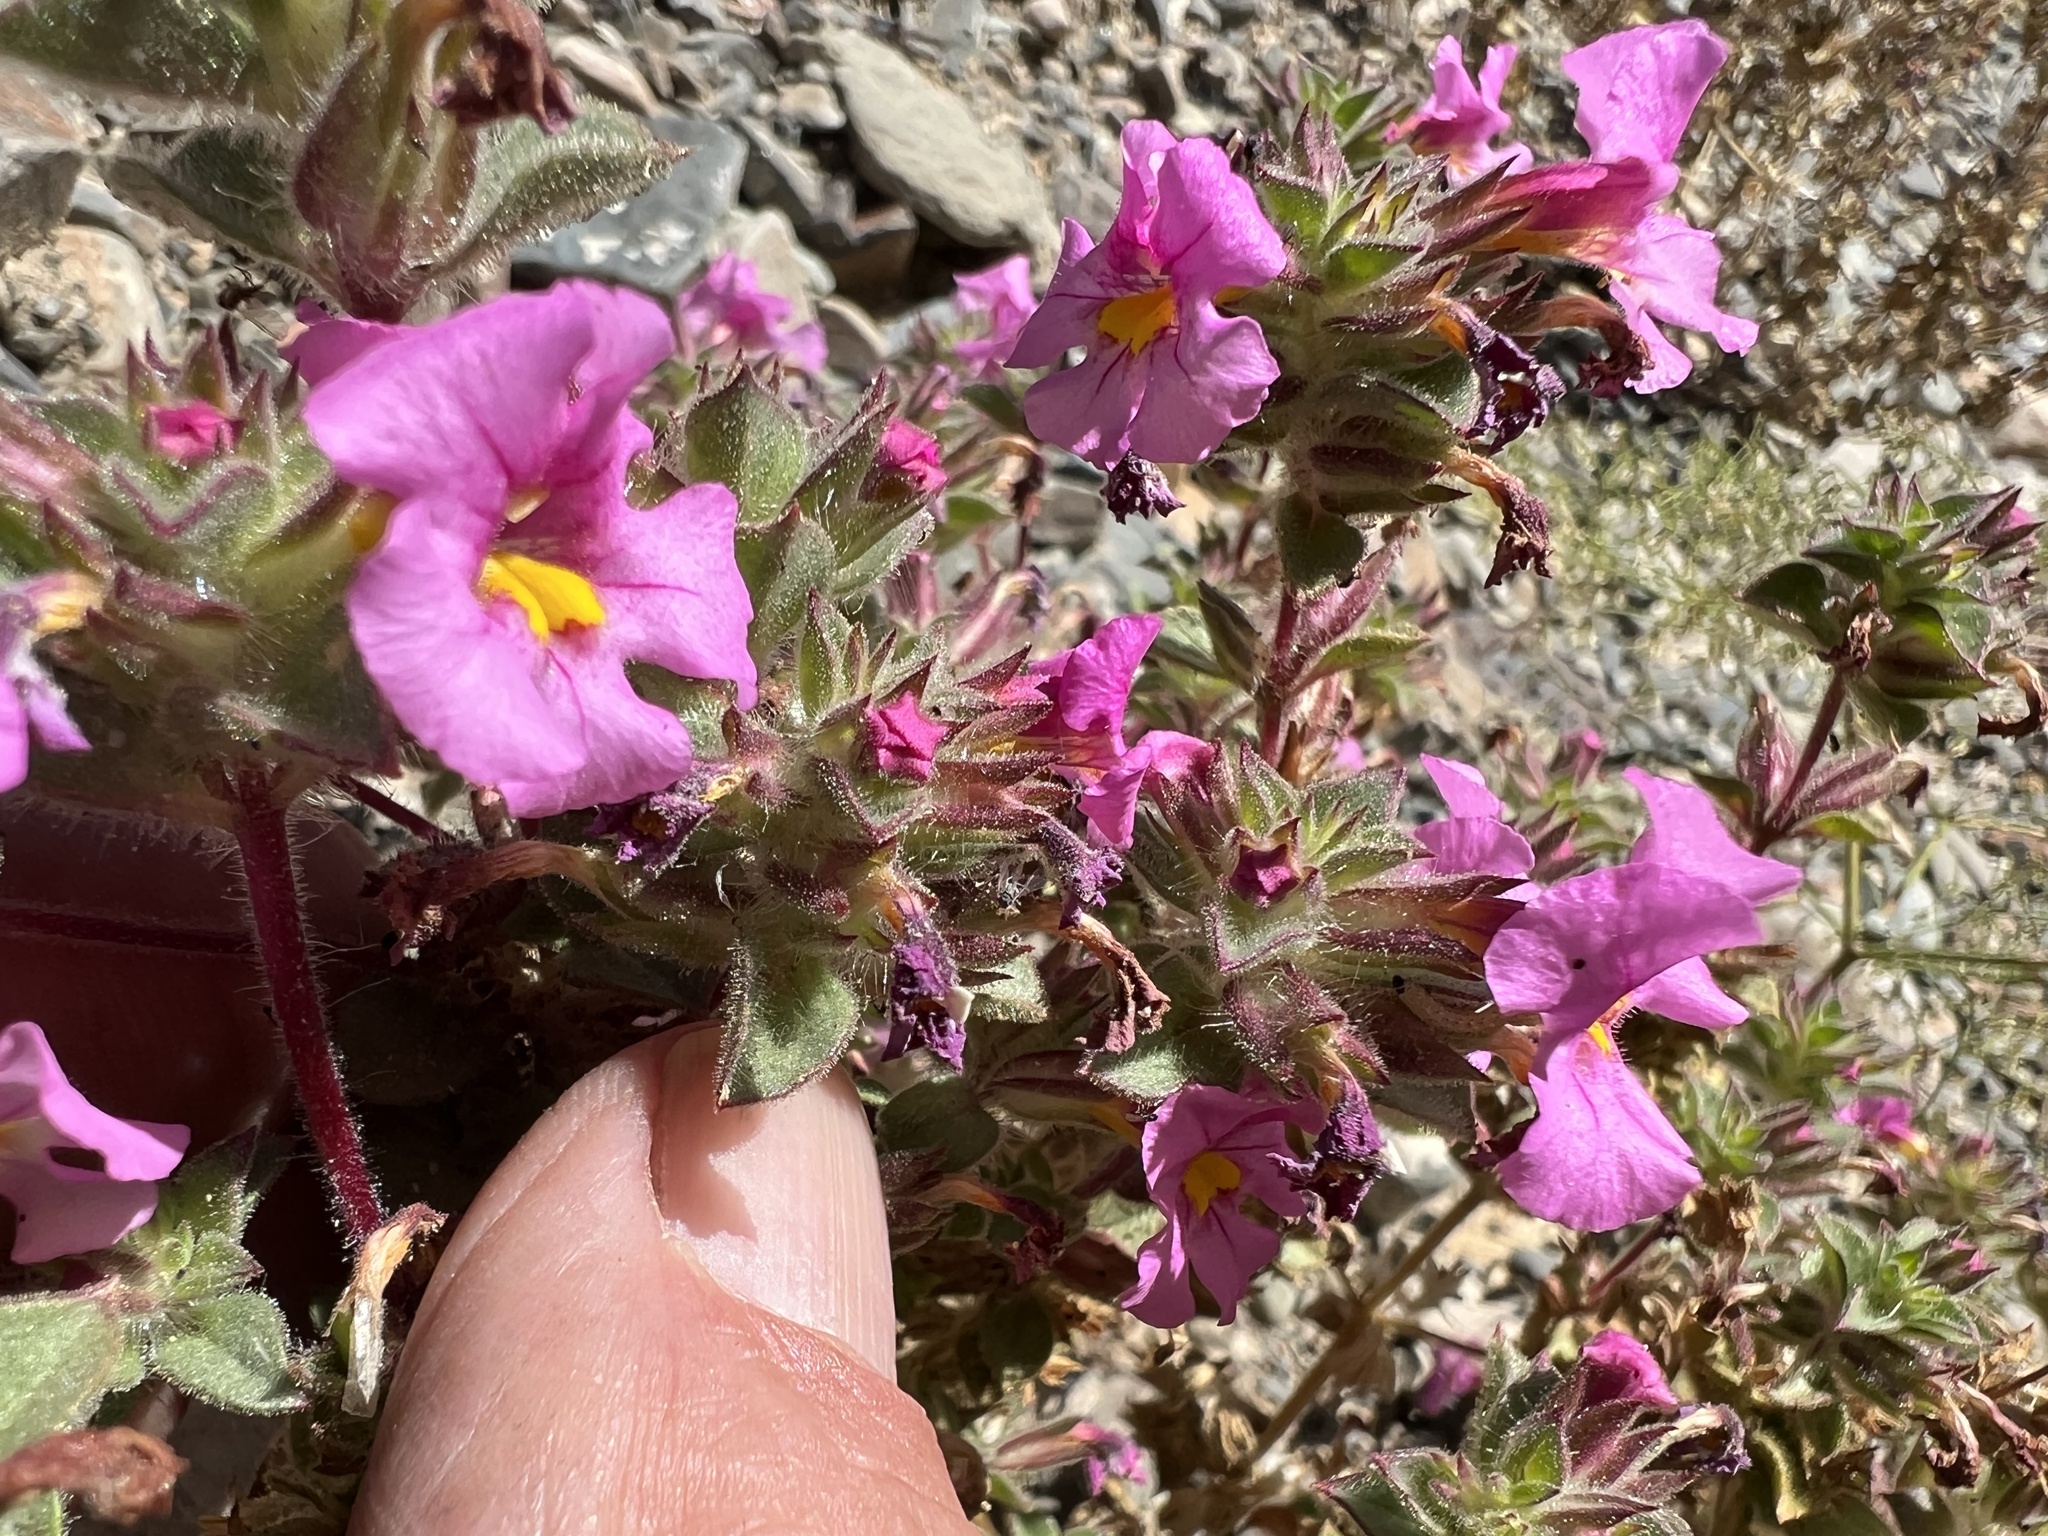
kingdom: Plantae
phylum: Tracheophyta
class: Magnoliopsida
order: Lamiales
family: Phrymaceae
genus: Diplacus
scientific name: Diplacus bigelovii
